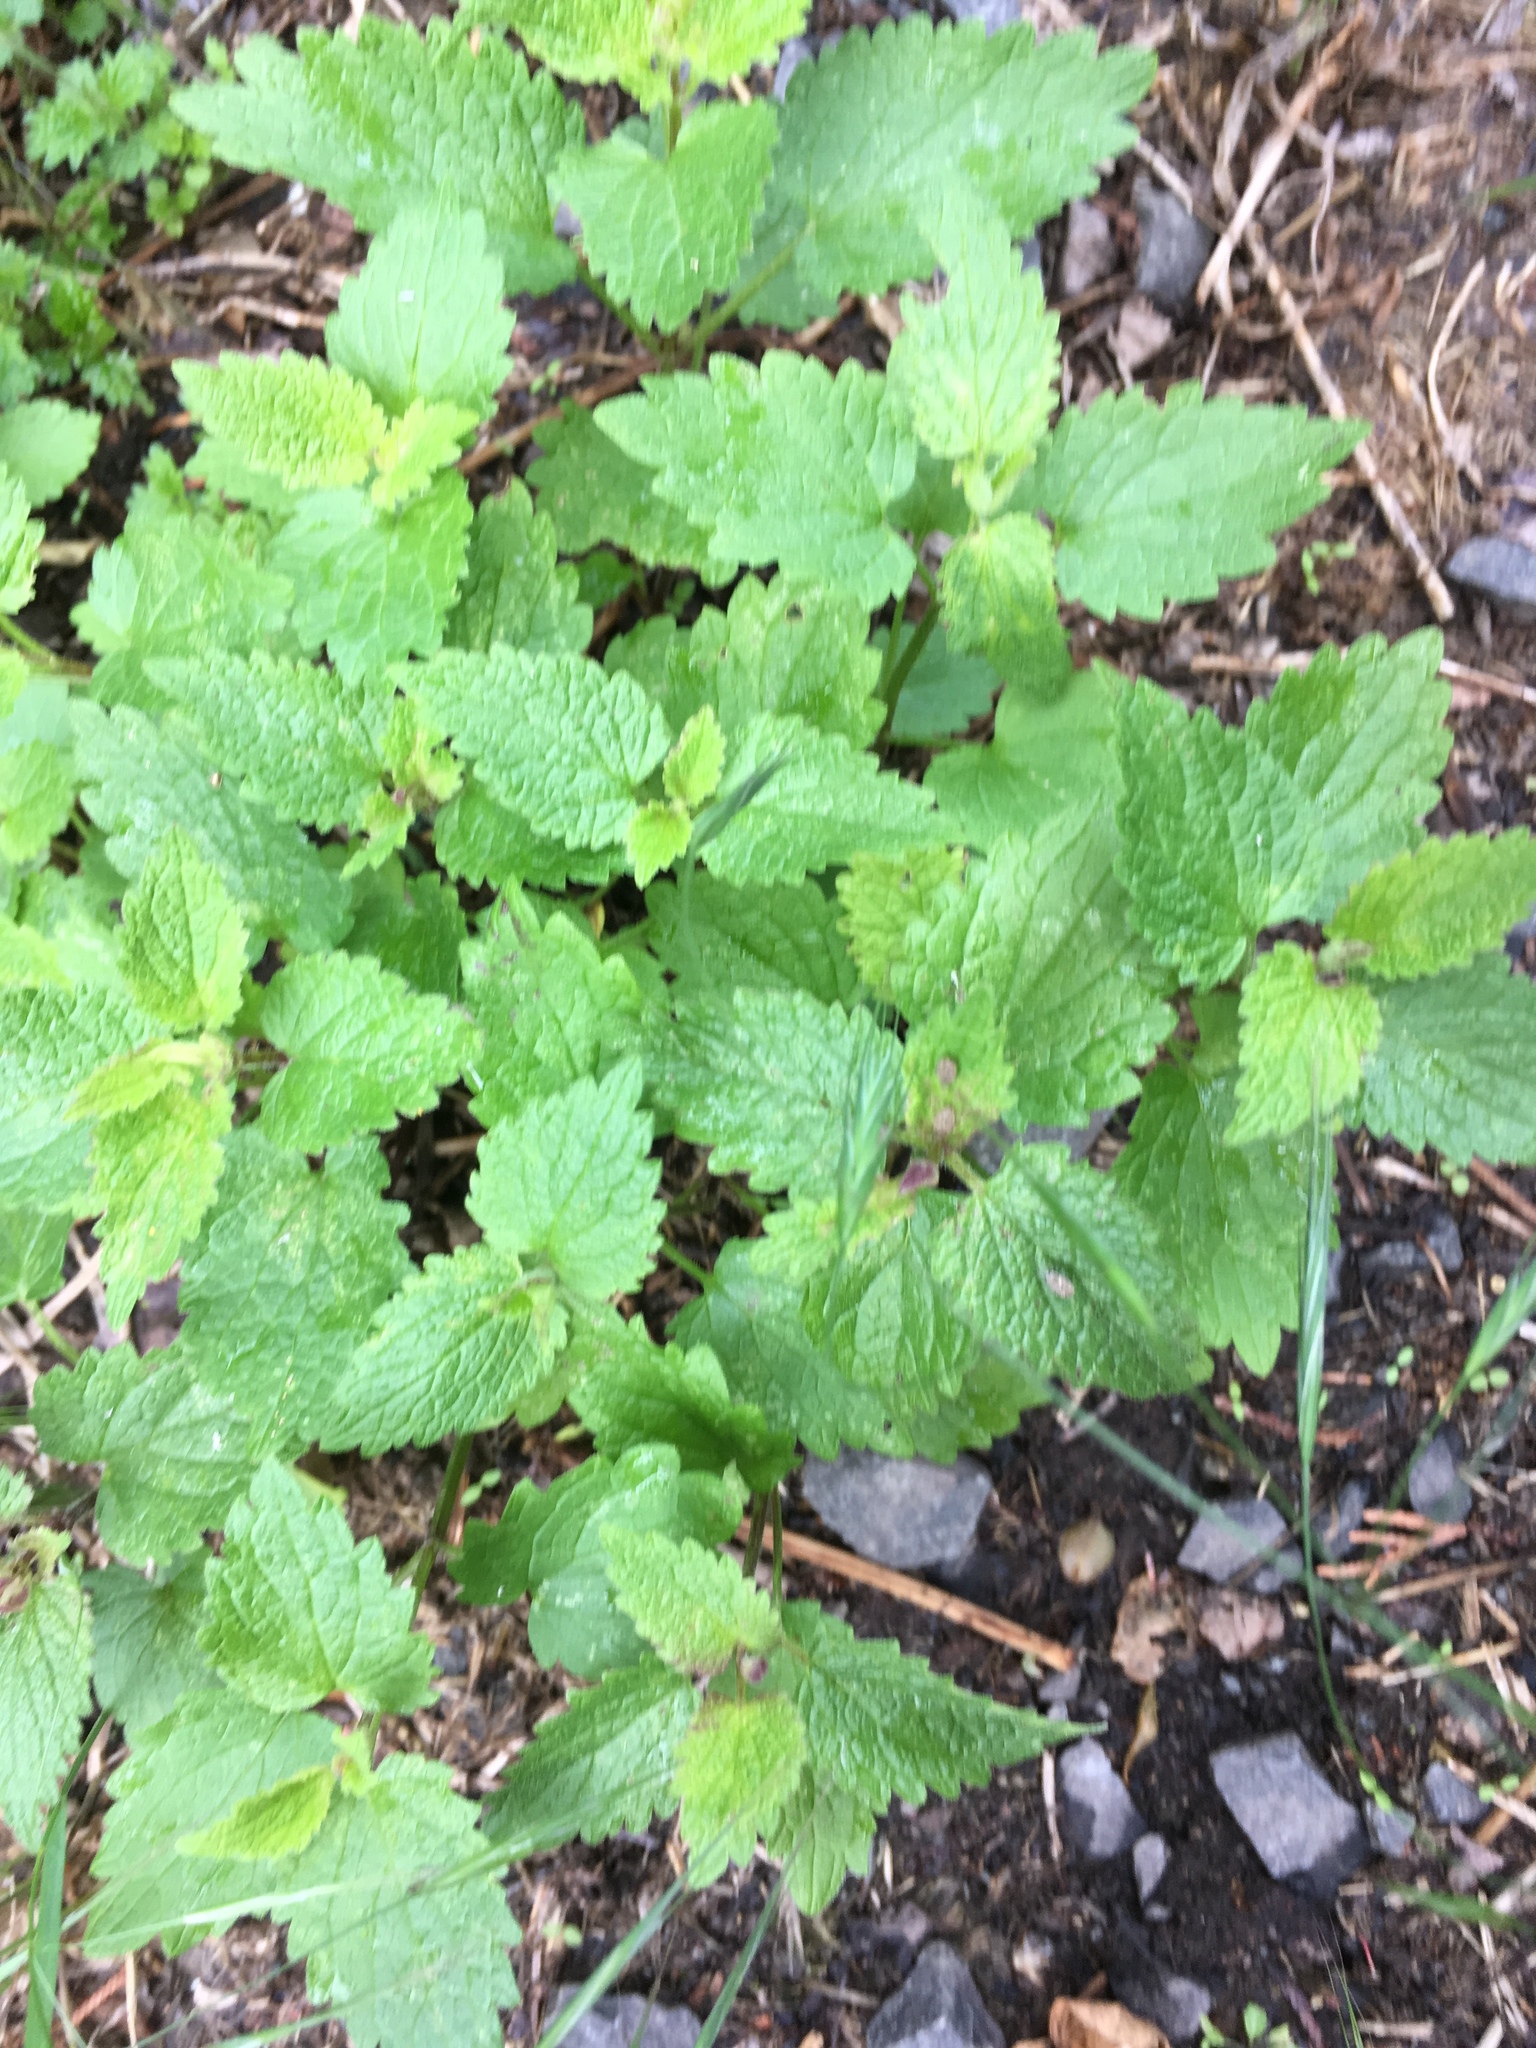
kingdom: Plantae
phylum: Tracheophyta
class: Magnoliopsida
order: Lamiales
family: Lamiaceae
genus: Lamium
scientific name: Lamium album
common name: White dead-nettle
